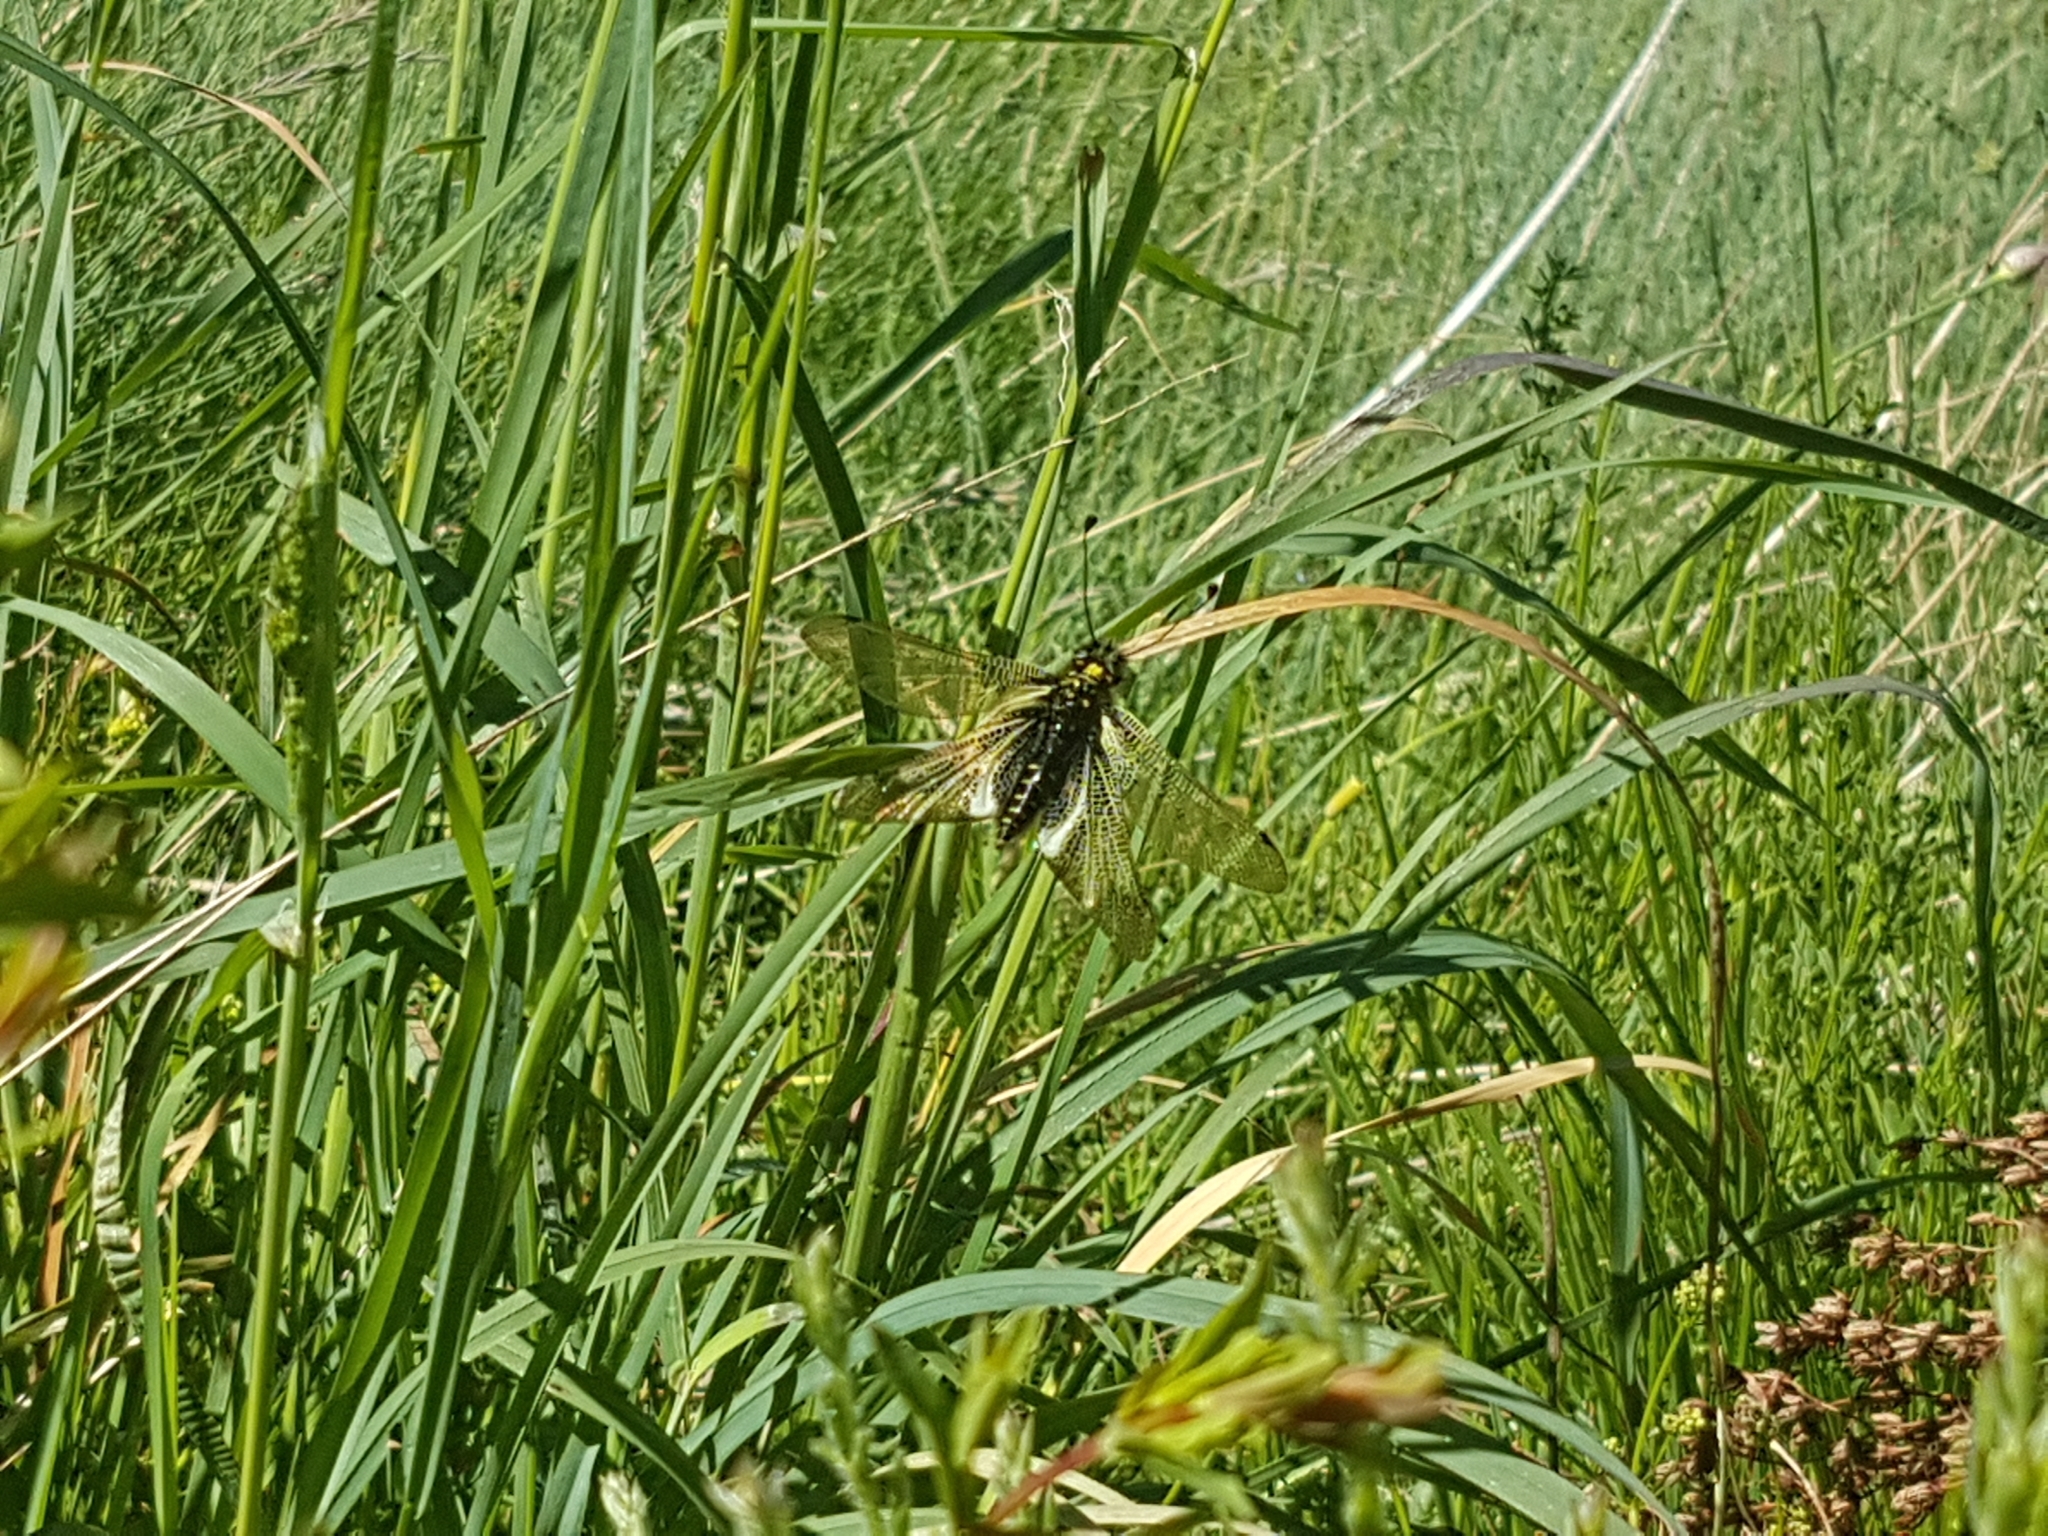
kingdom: Animalia
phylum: Arthropoda
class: Insecta
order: Neuroptera
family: Ascalaphidae
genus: Libelloides
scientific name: Libelloides hispanicus
